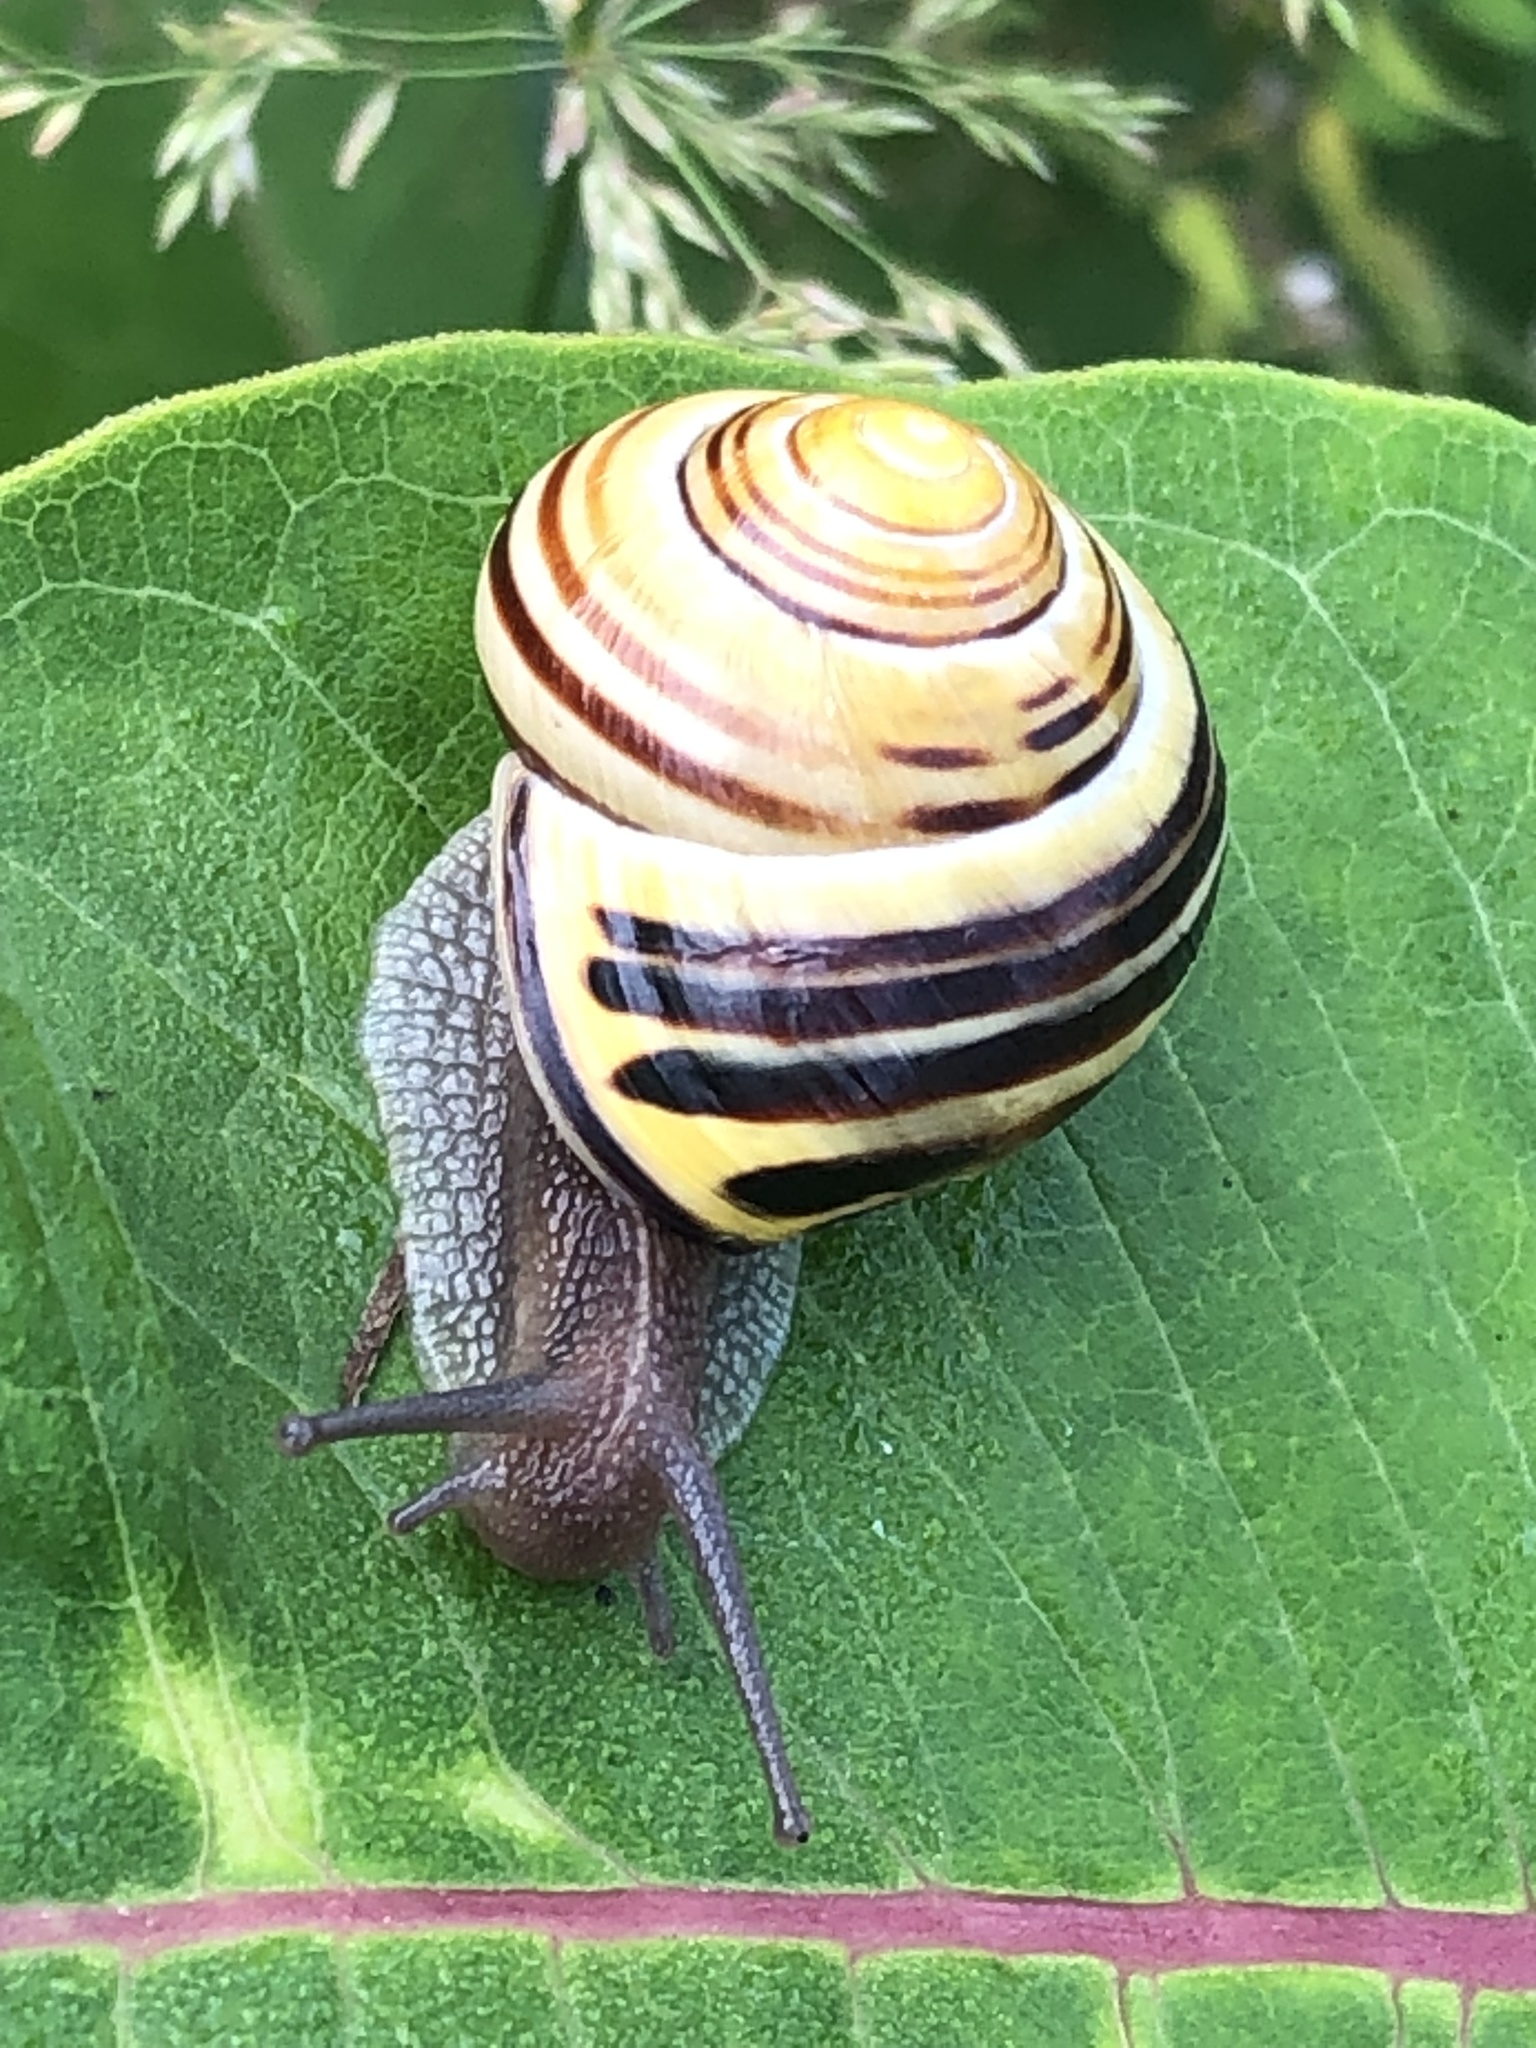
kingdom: Animalia
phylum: Mollusca
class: Gastropoda
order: Stylommatophora
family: Helicidae
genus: Cepaea
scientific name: Cepaea nemoralis
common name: Grovesnail
